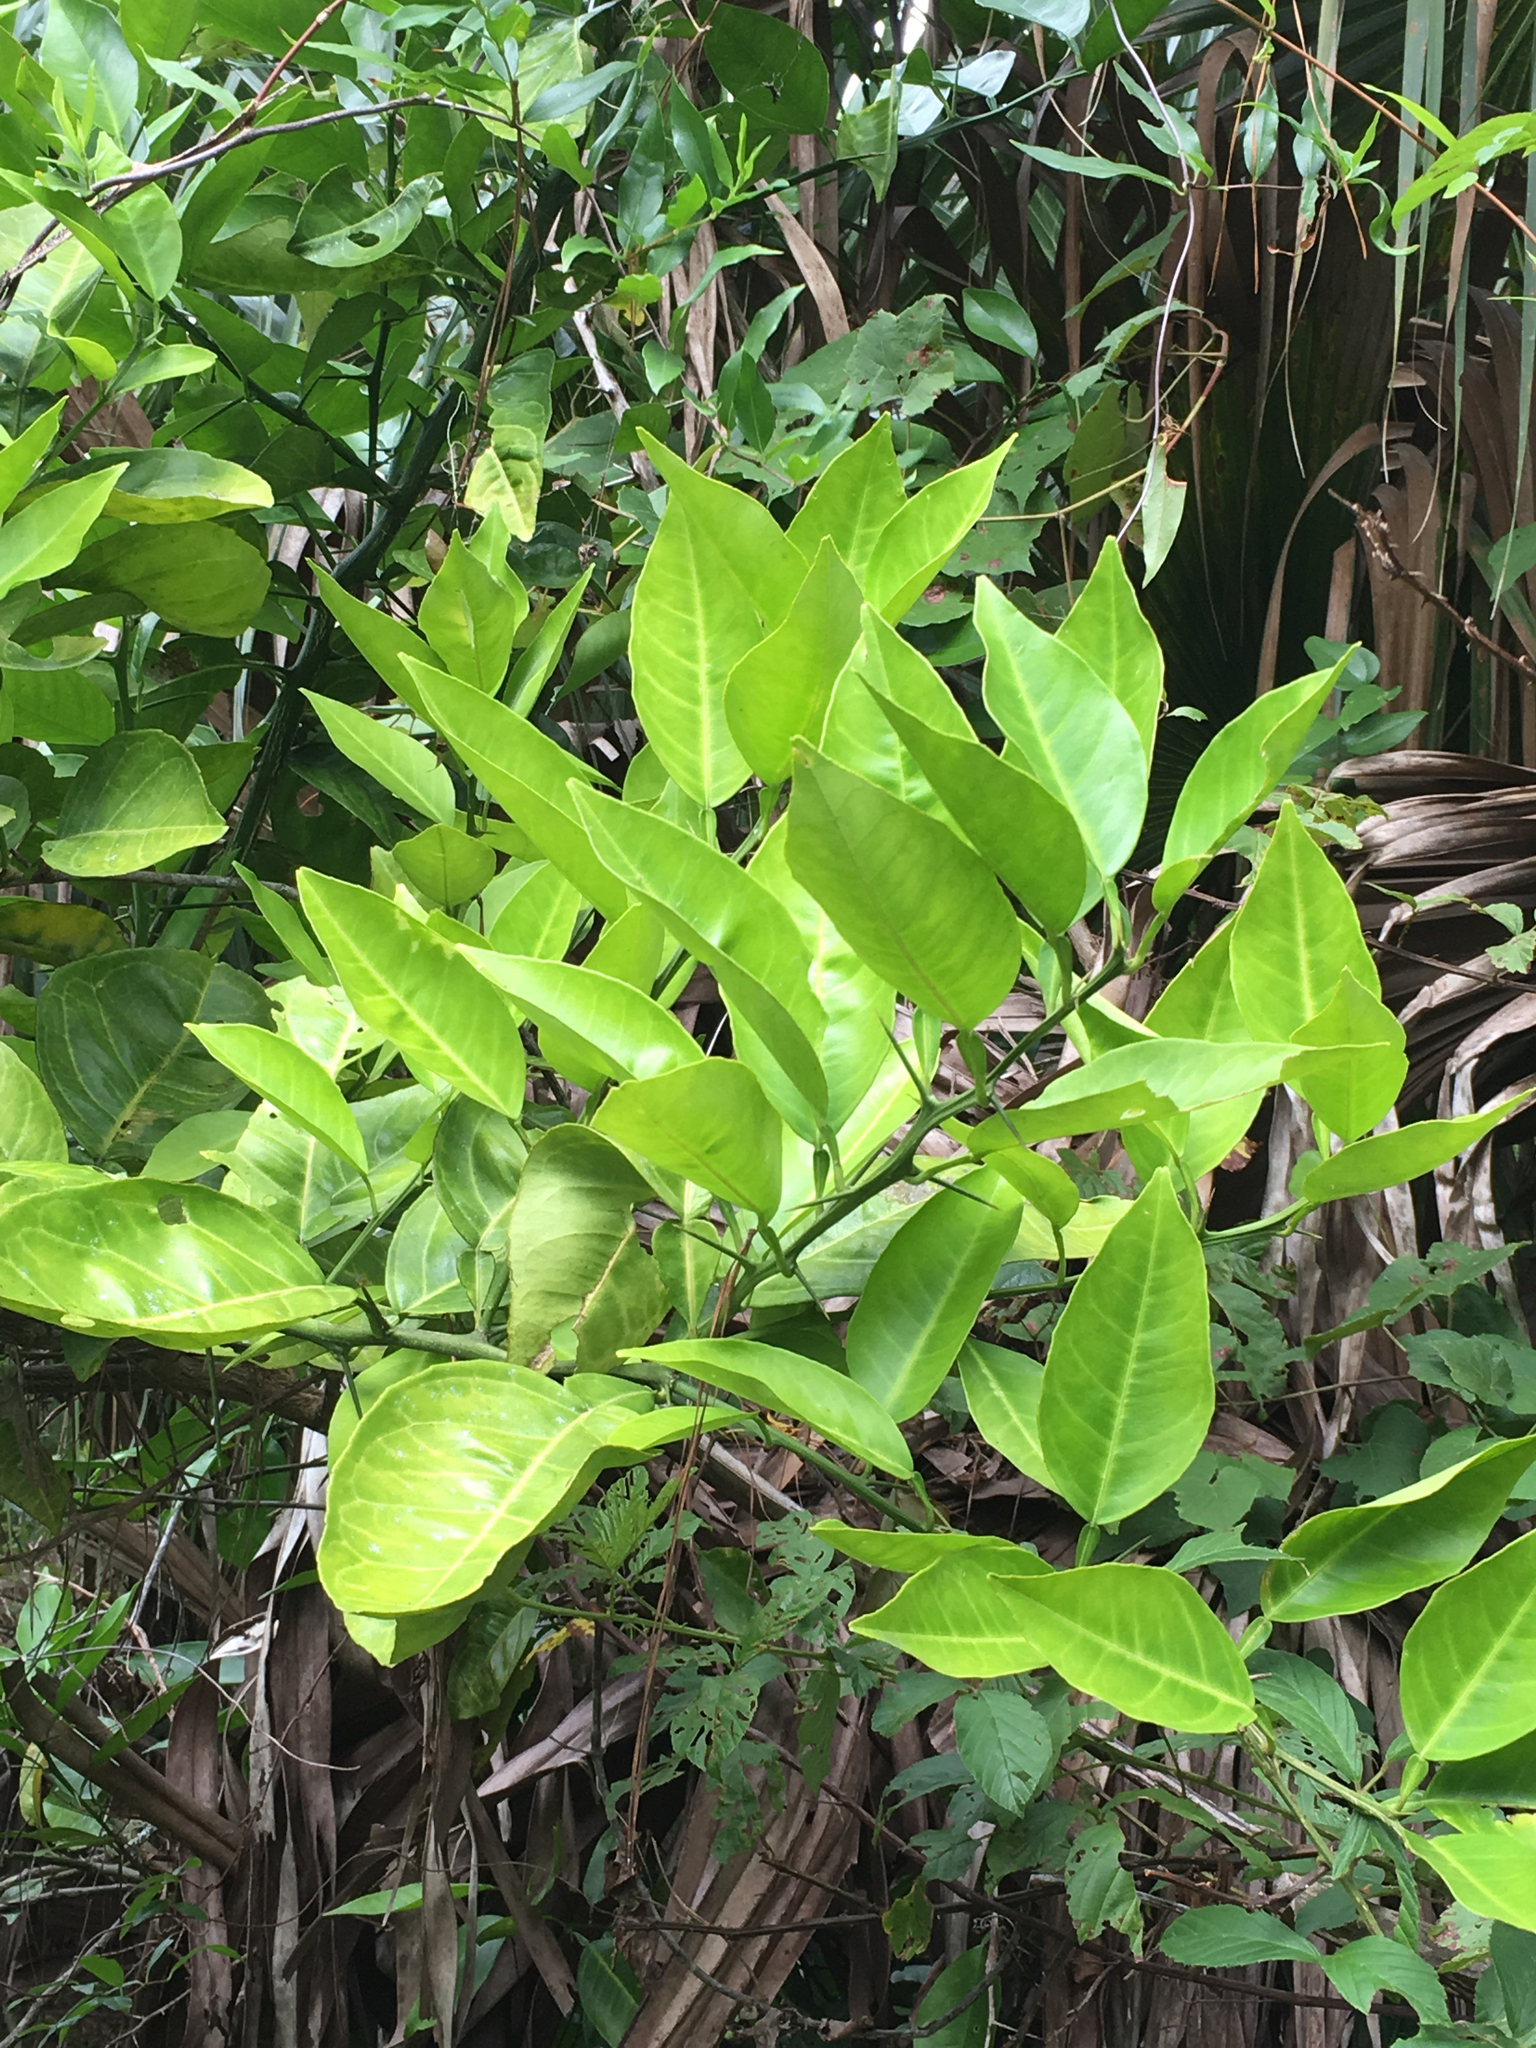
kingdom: Plantae
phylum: Tracheophyta
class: Magnoliopsida
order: Sapindales
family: Rutaceae
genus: Citrus
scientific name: Citrus aurantium
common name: Sour orange
